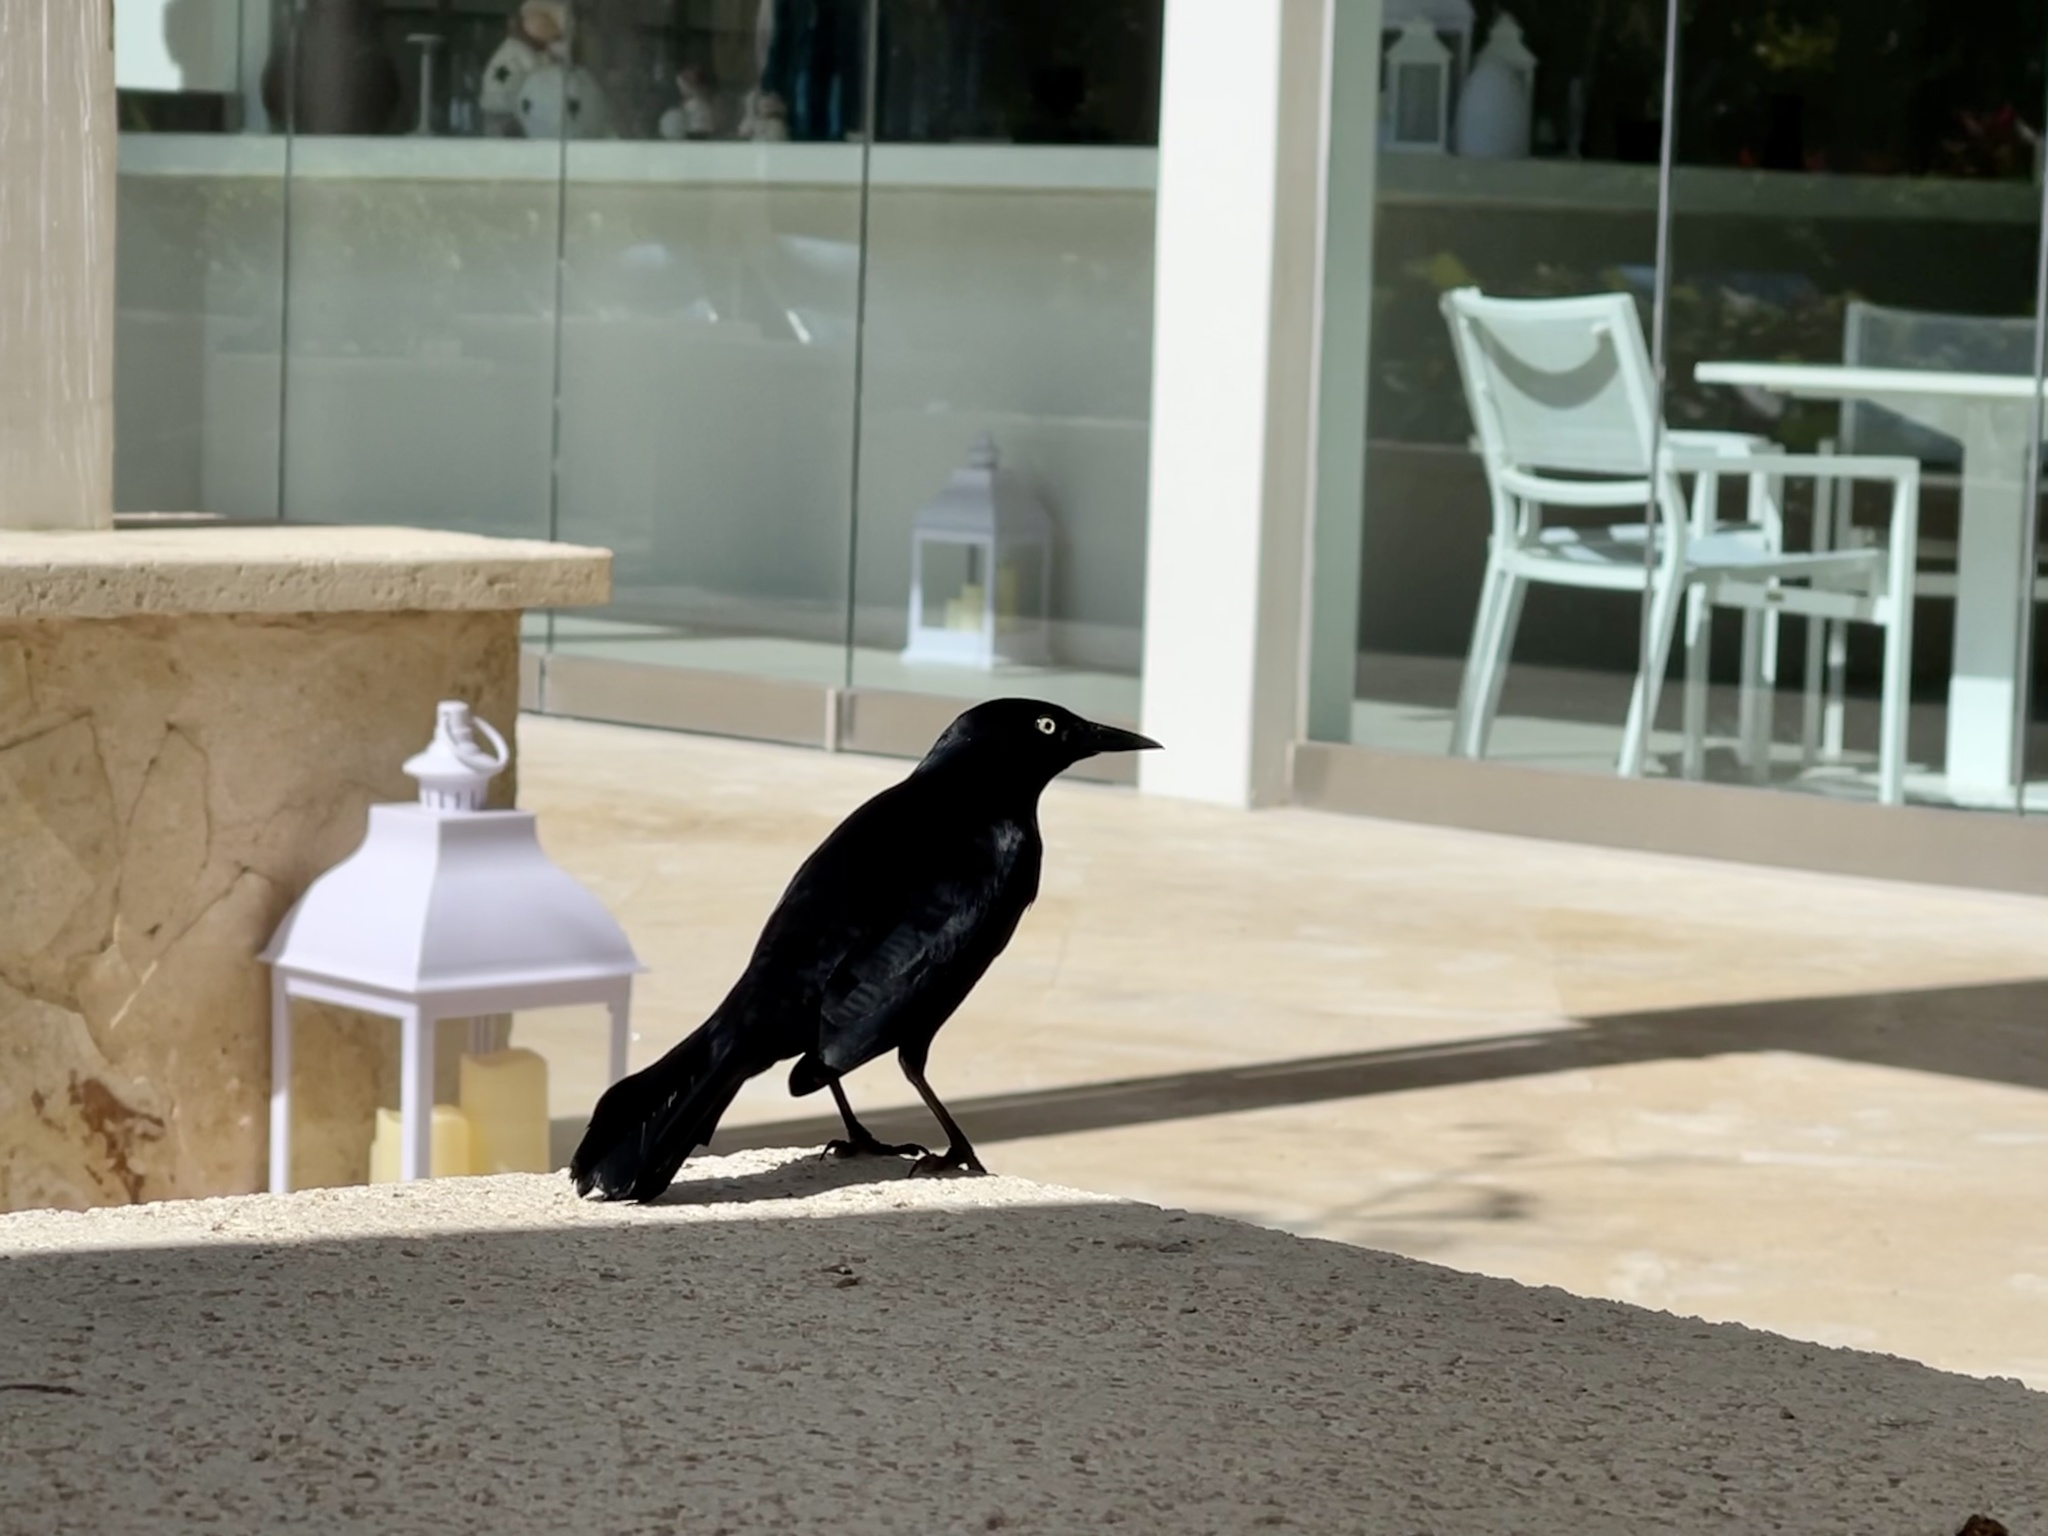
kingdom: Animalia
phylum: Chordata
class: Aves
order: Passeriformes
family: Icteridae
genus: Quiscalus
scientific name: Quiscalus niger
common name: Greater antillean grackle
